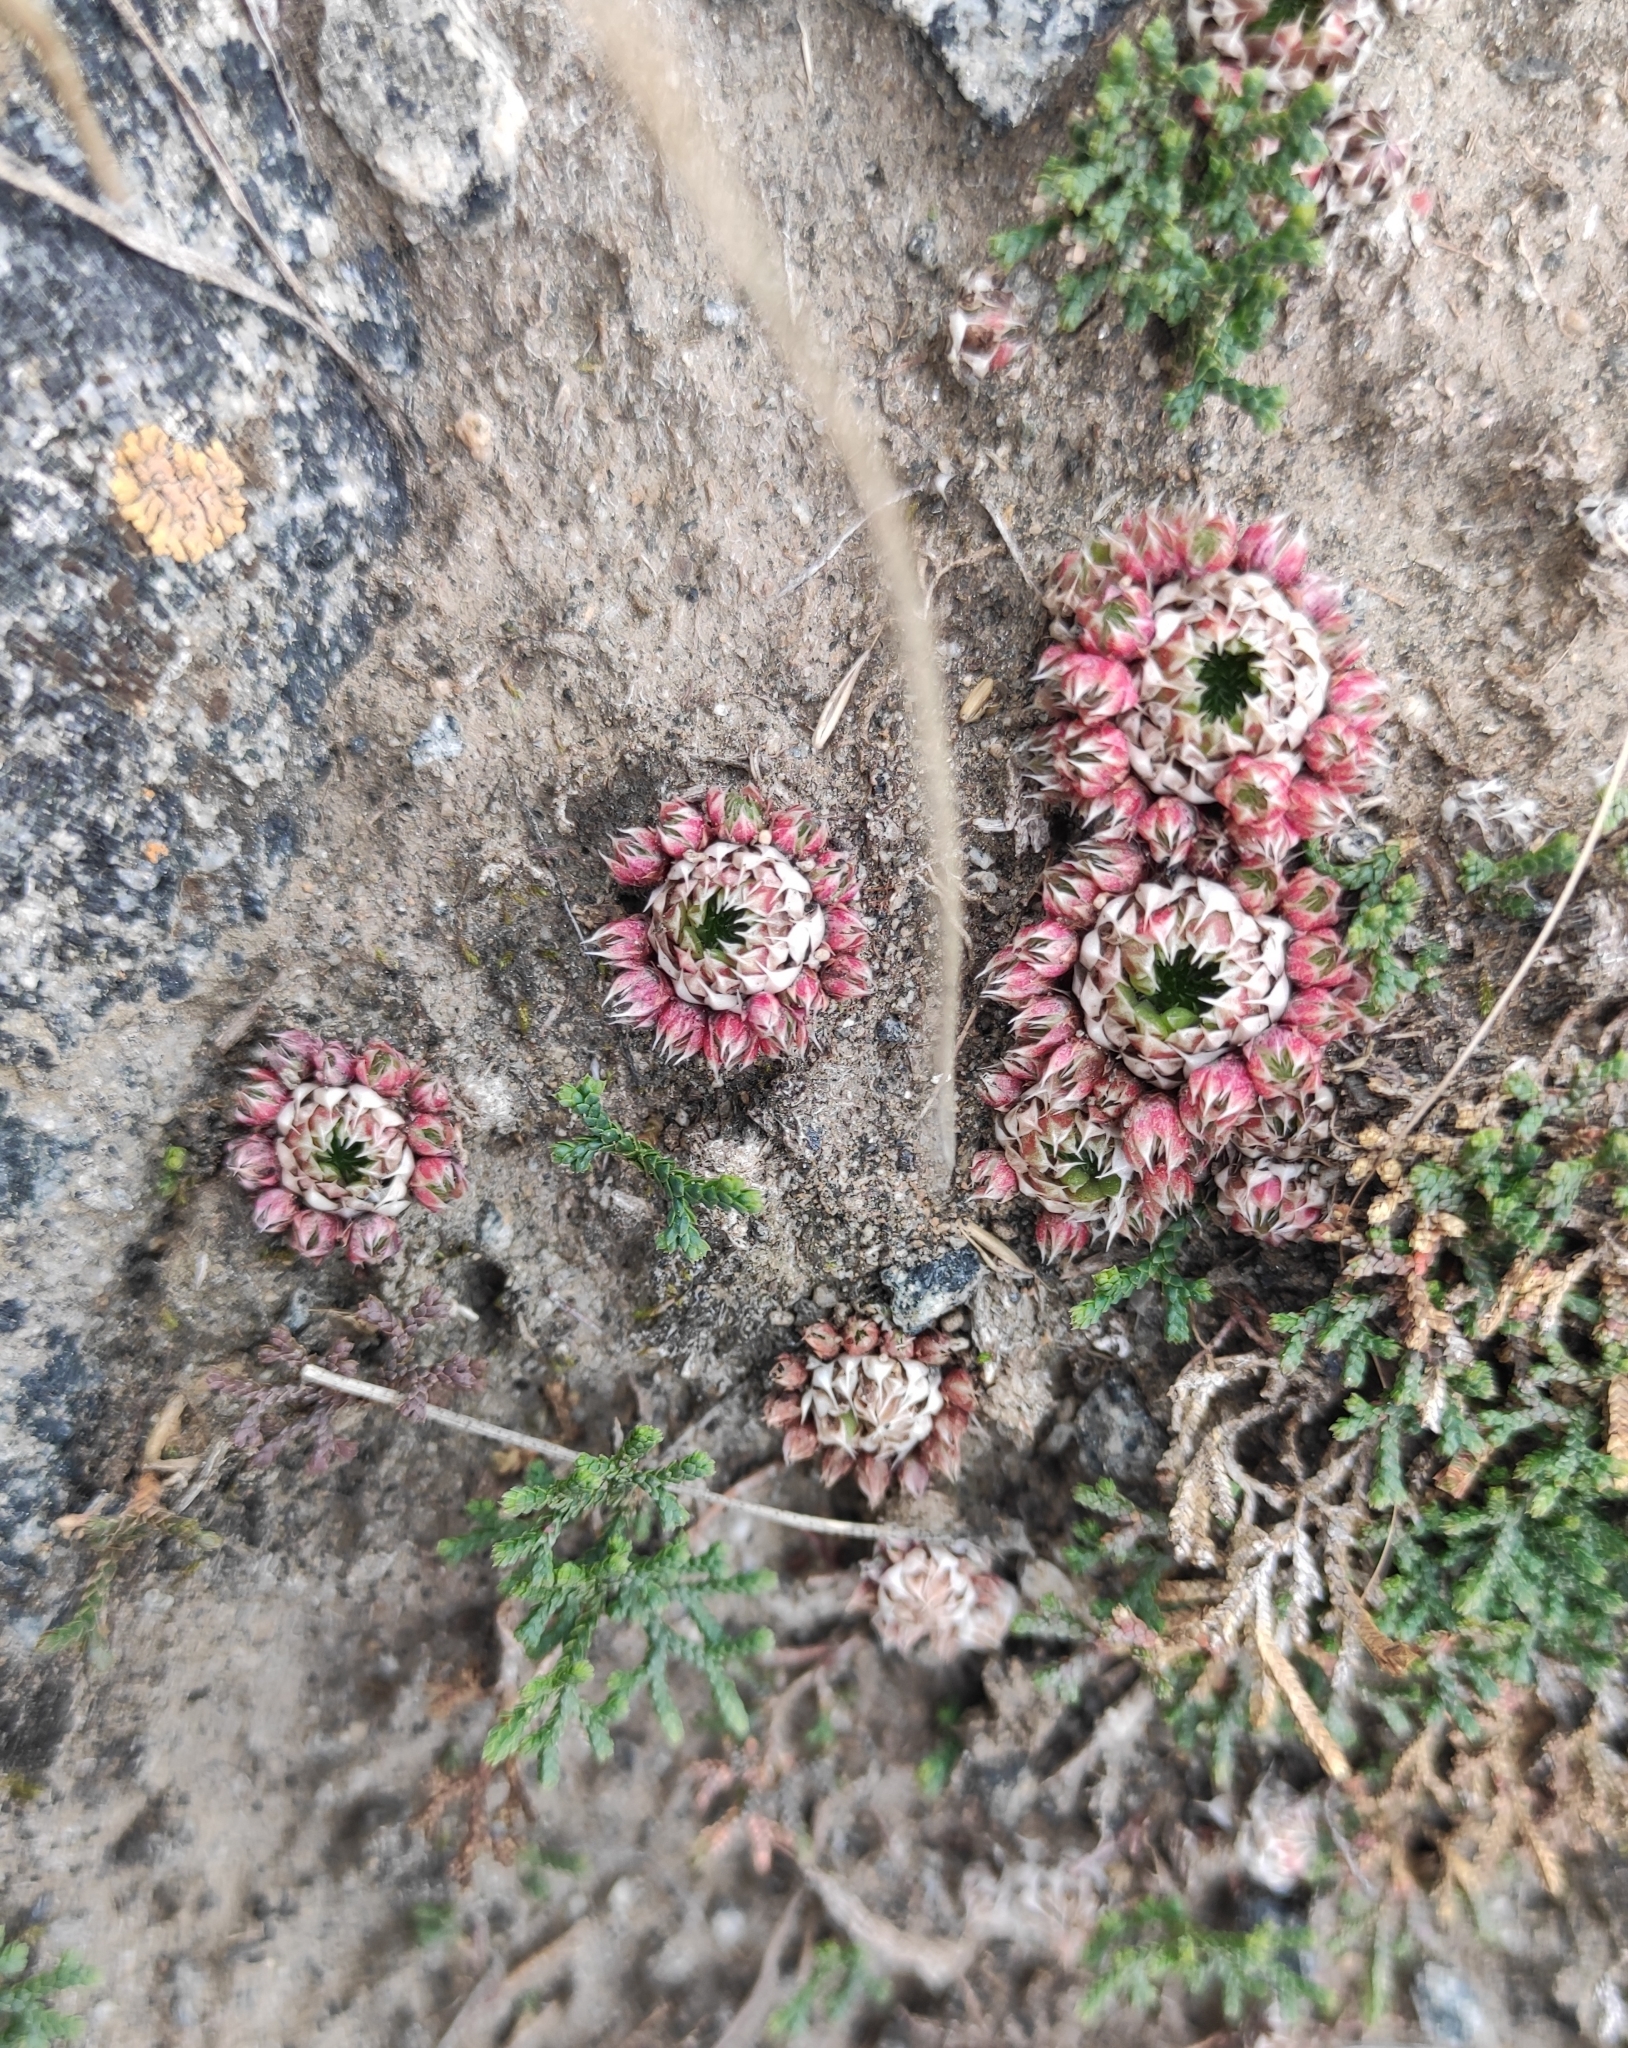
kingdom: Plantae
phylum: Tracheophyta
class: Magnoliopsida
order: Saxifragales
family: Crassulaceae
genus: Orostachys
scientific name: Orostachys spinosa
